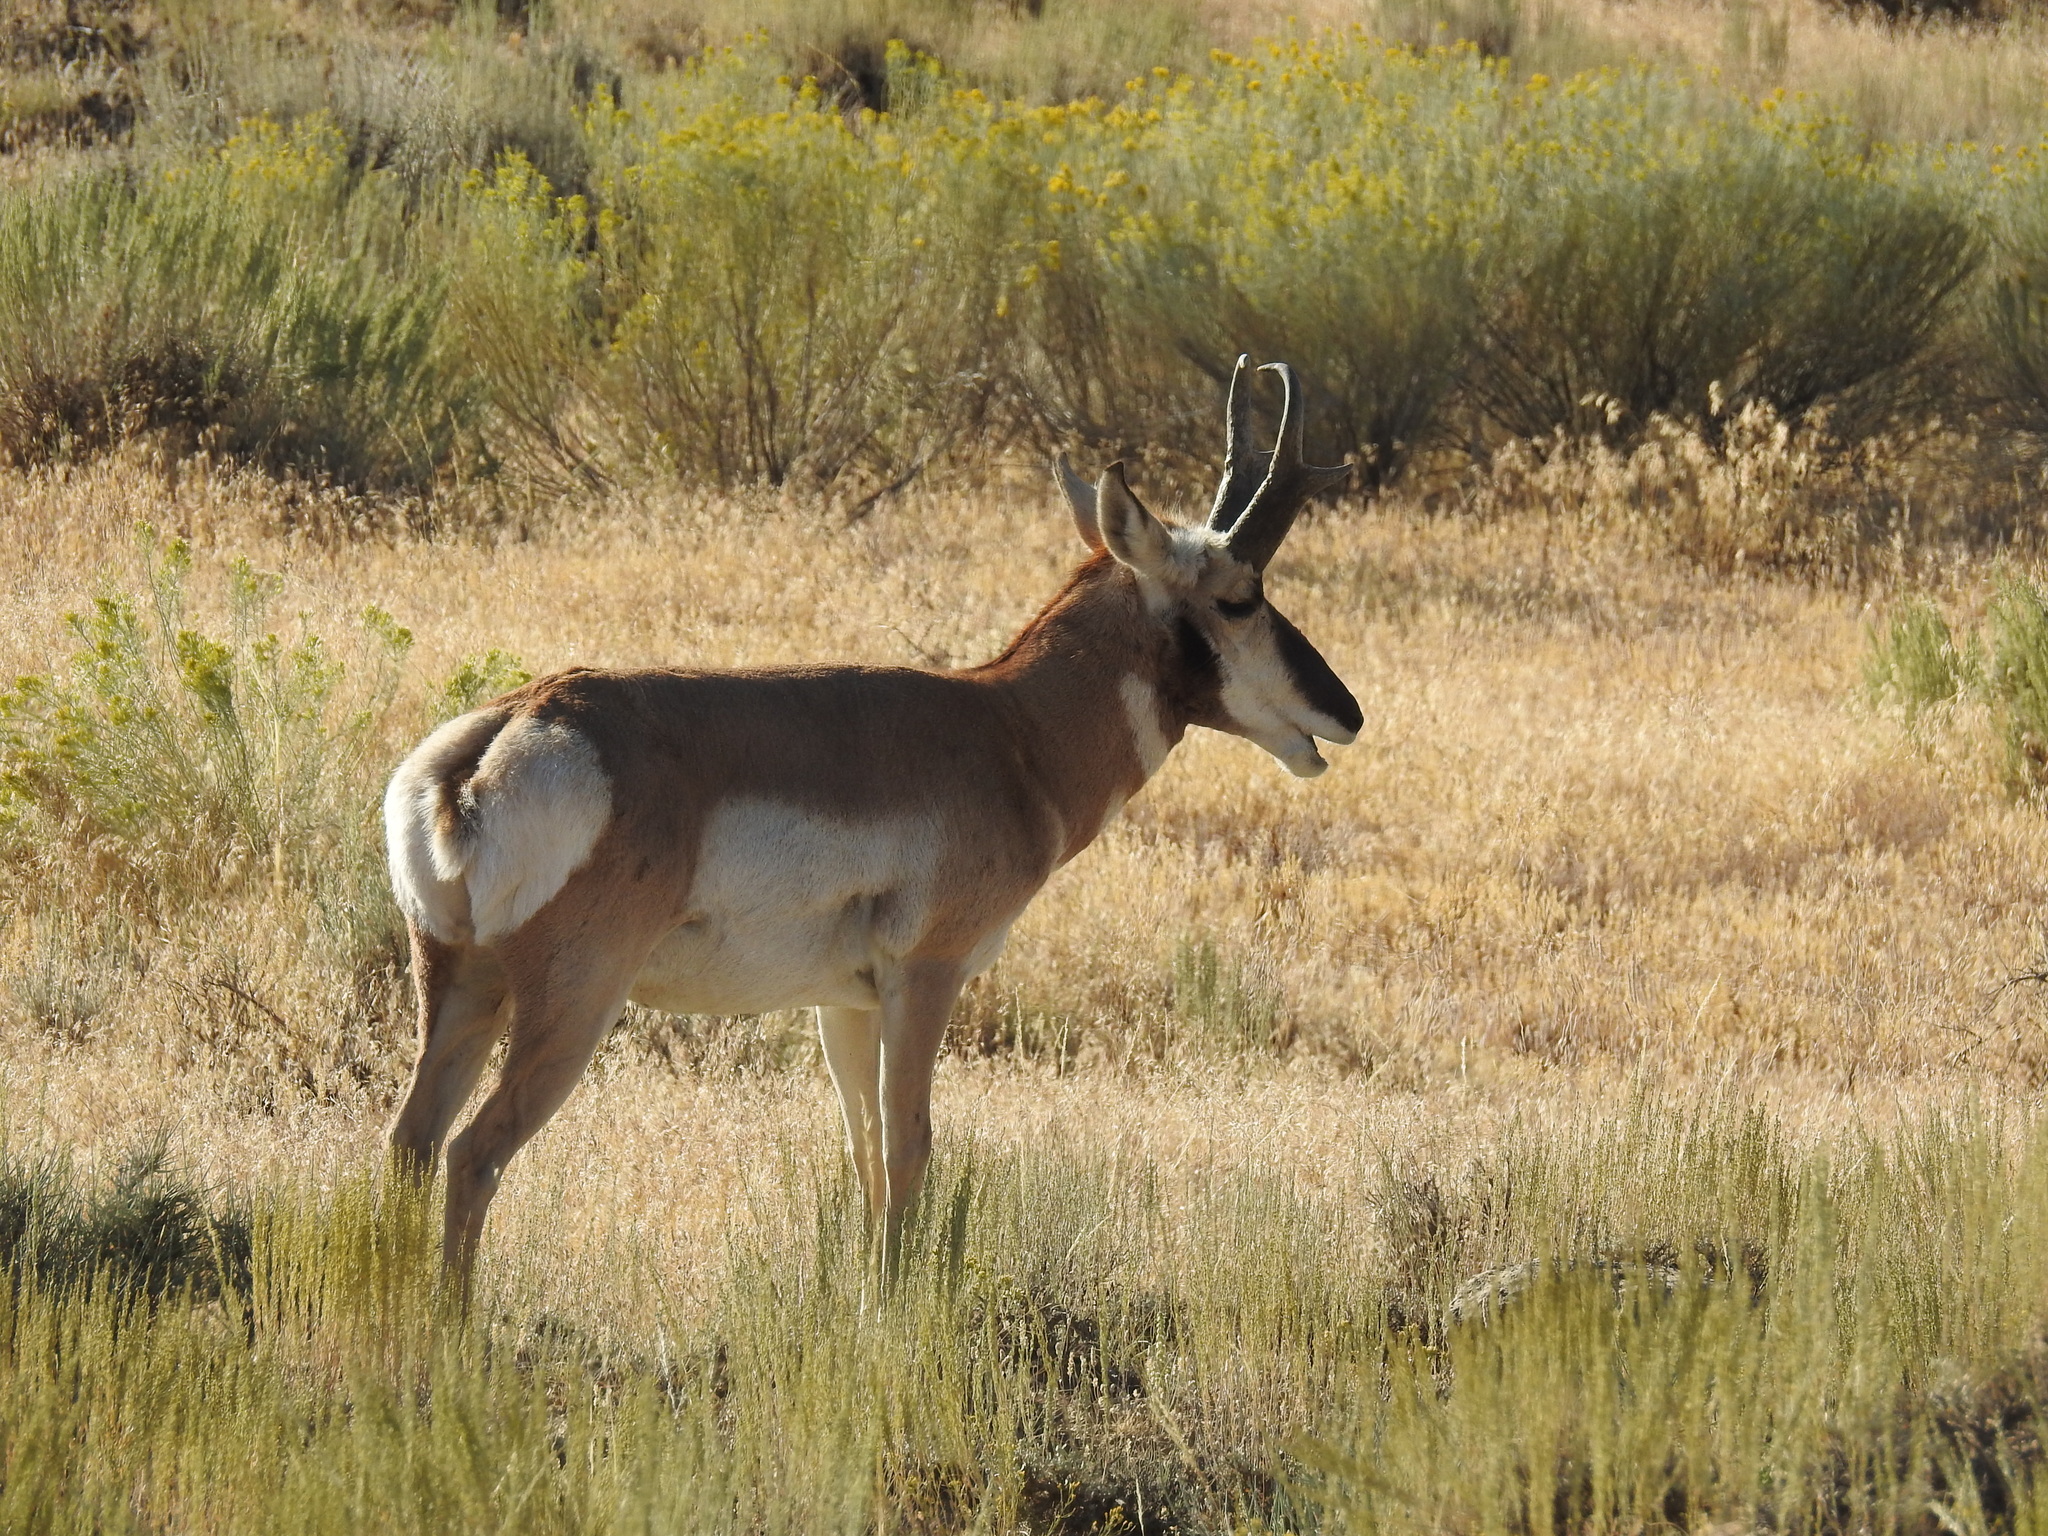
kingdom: Animalia
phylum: Chordata
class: Mammalia
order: Artiodactyla
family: Antilocapridae
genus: Antilocapra
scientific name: Antilocapra americana
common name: Pronghorn
